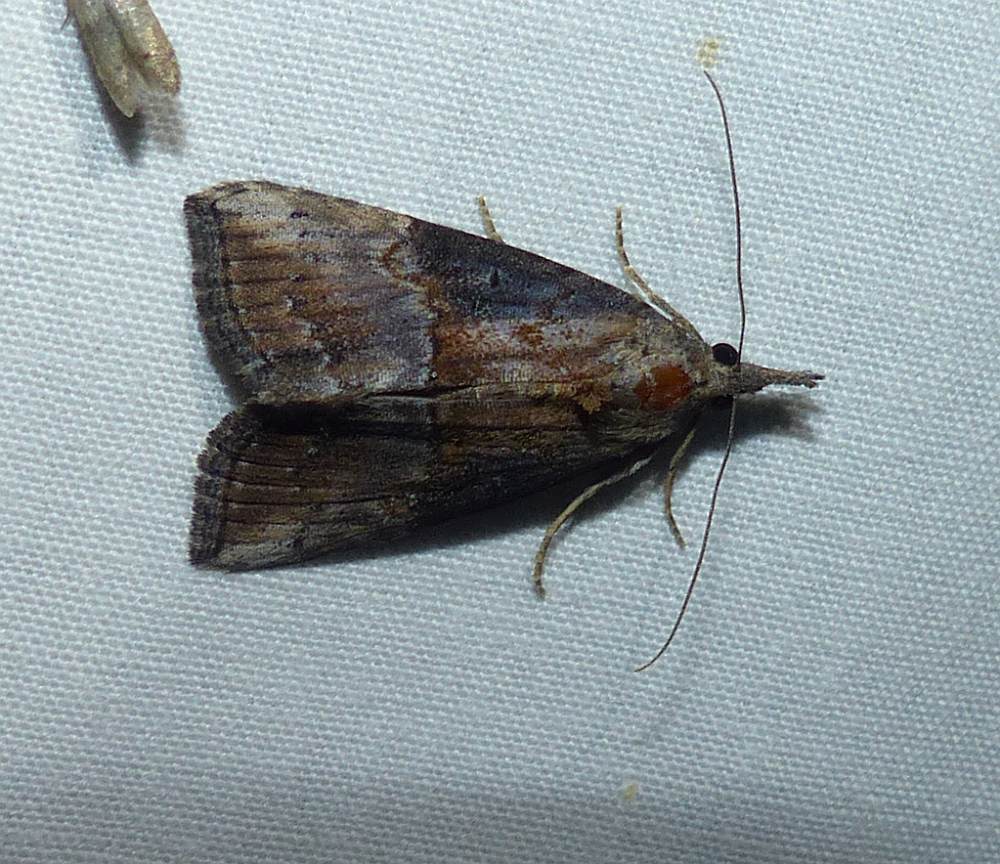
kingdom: Animalia
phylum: Arthropoda
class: Insecta
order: Lepidoptera
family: Erebidae
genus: Hypena
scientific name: Hypena scabra
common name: Green cloverworm
